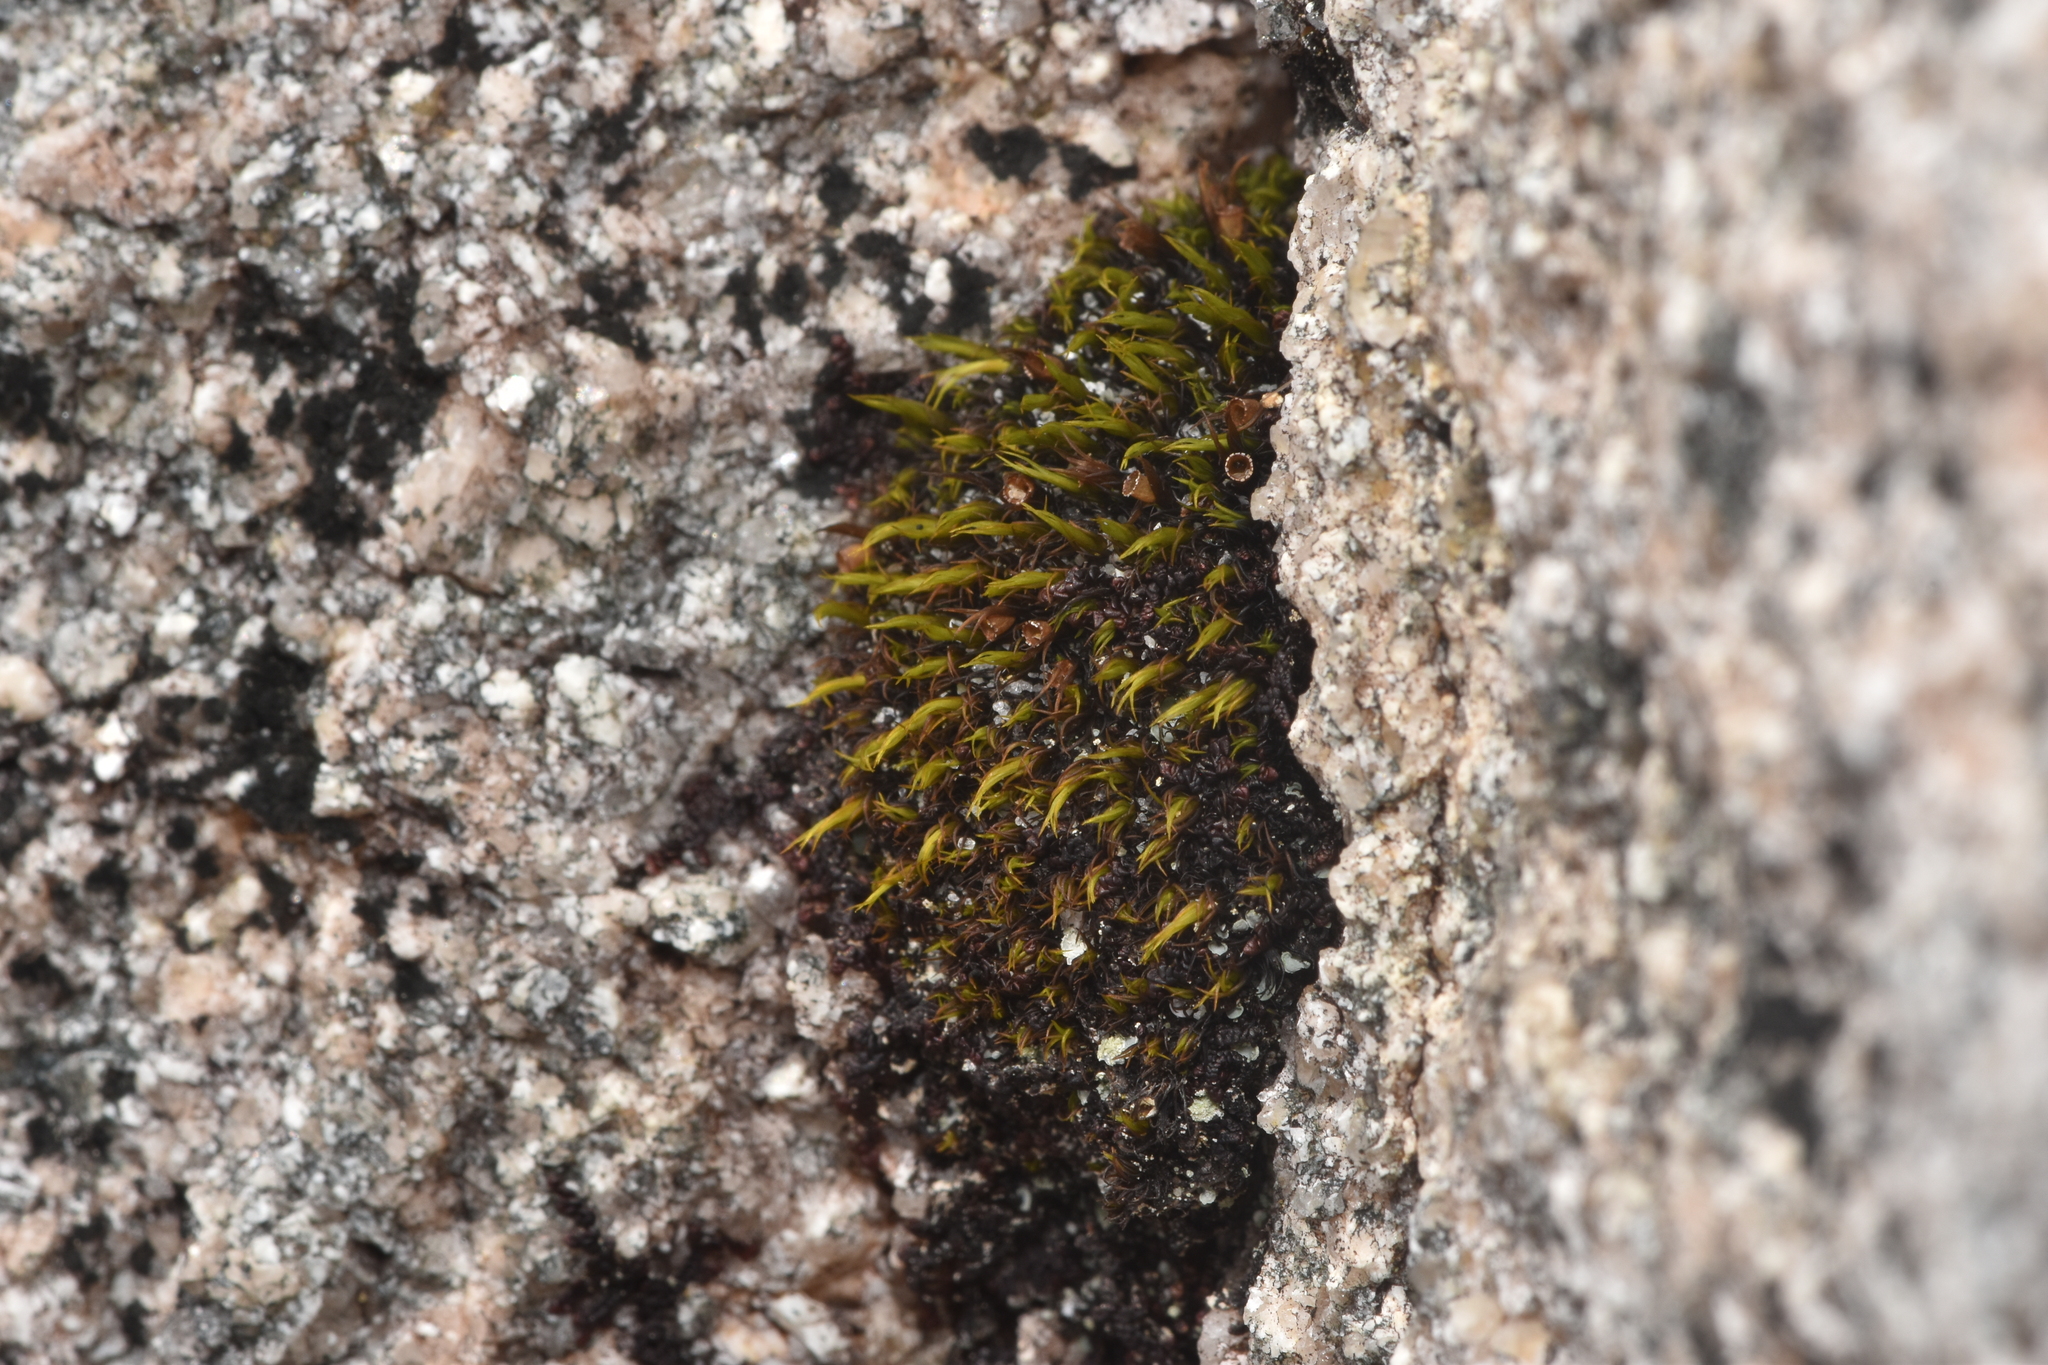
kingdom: Plantae
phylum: Bryophyta
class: Bryopsida
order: Grimmiales
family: Grimmiaceae
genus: Schistidium
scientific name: Schistidium maritimum
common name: Seaside bloom moss
